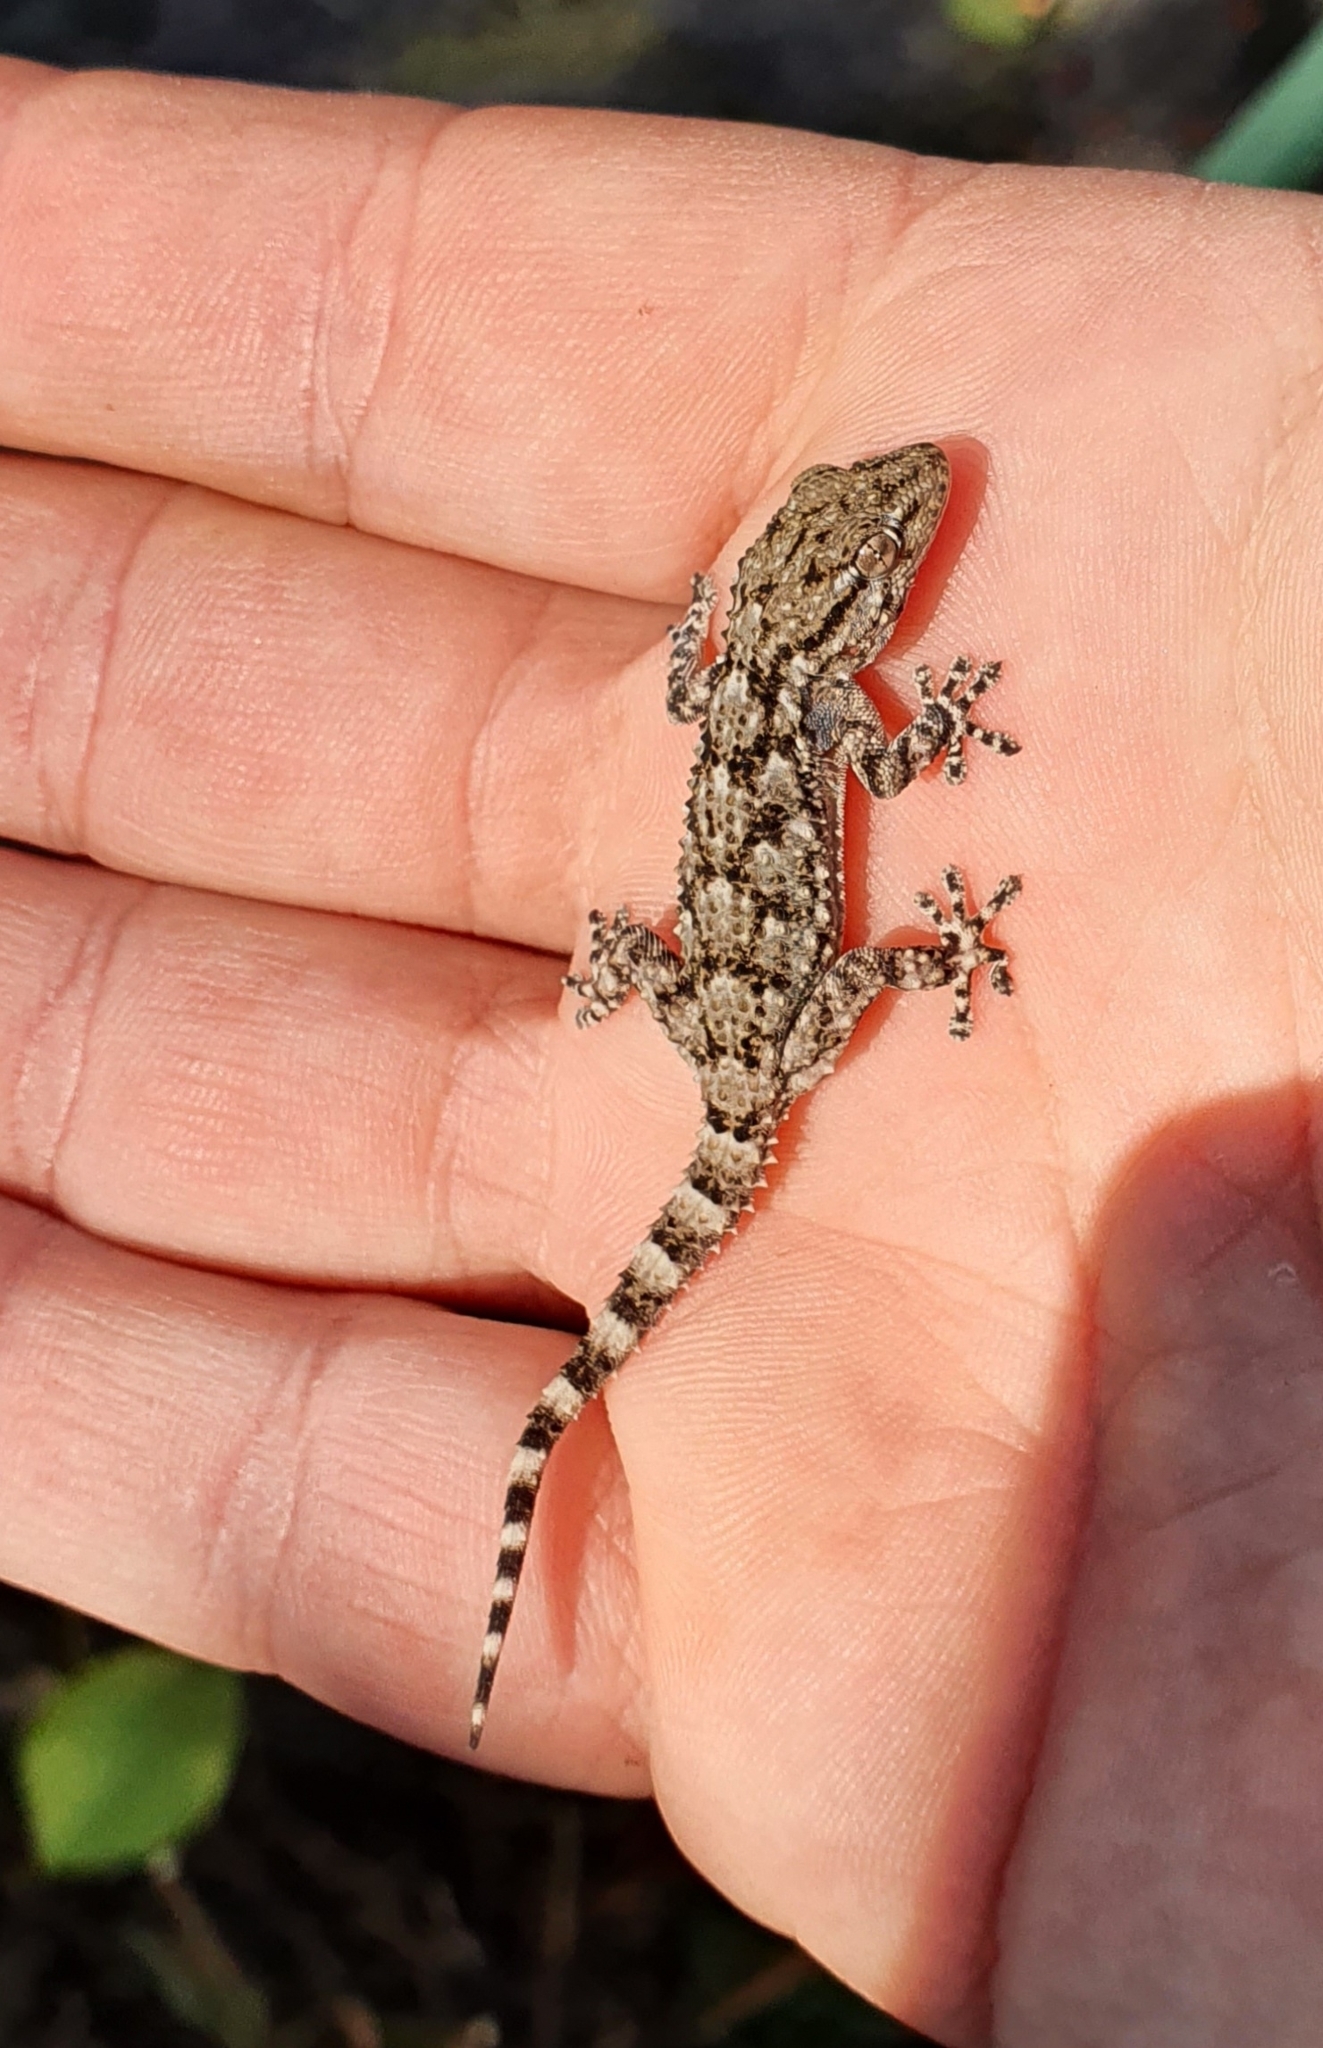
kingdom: Animalia
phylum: Chordata
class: Squamata
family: Phyllodactylidae
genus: Tarentola
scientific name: Tarentola mauritanica
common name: Moorish gecko
